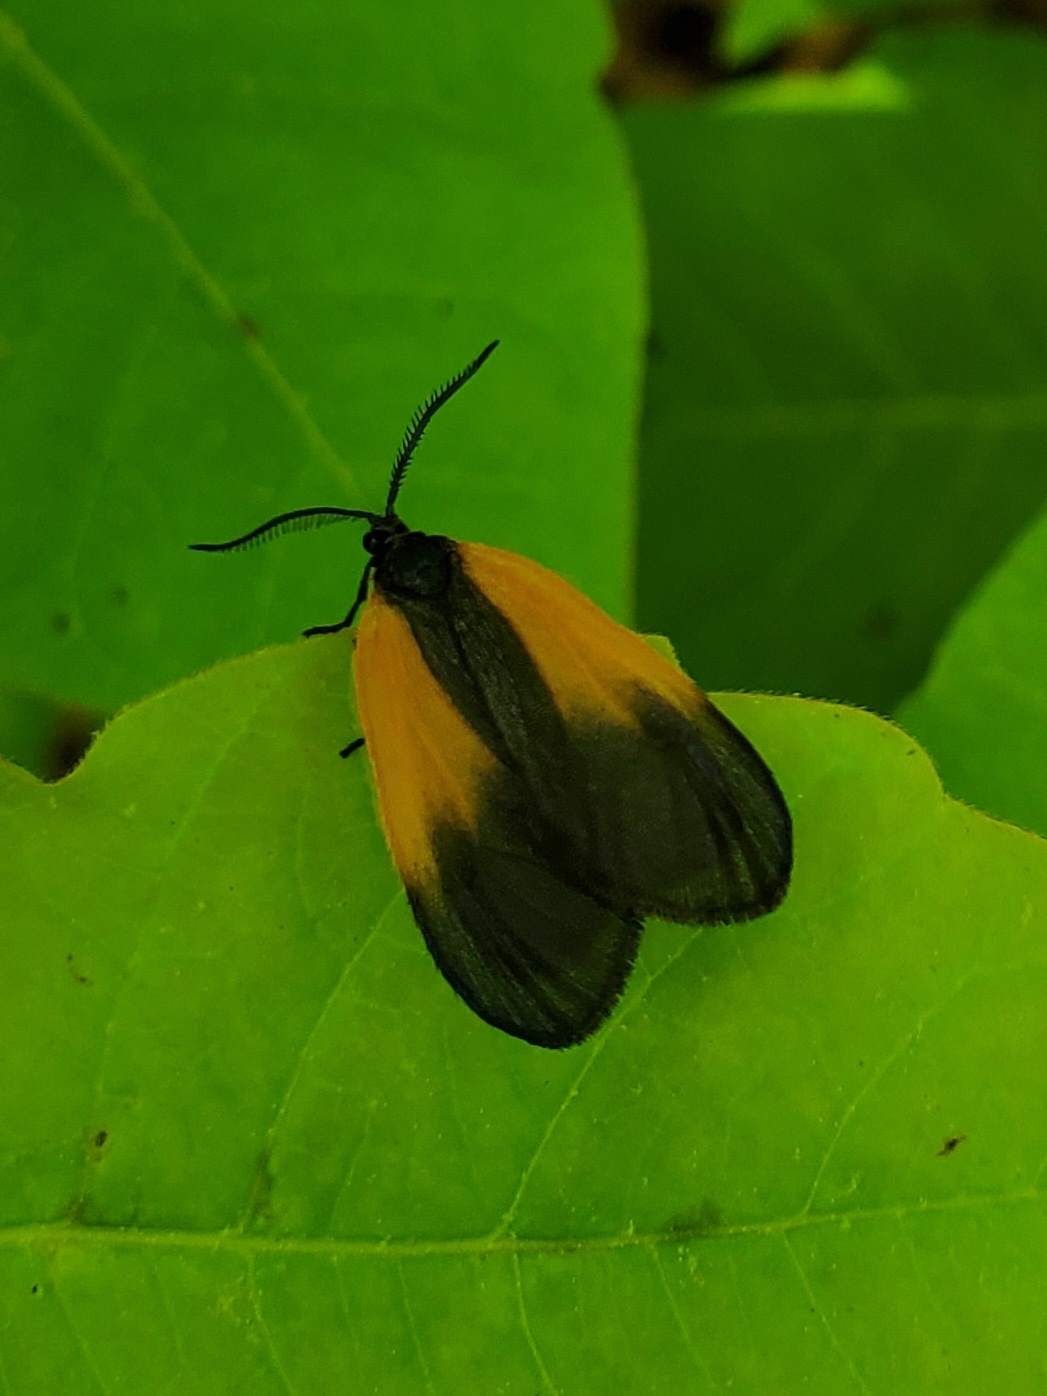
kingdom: Animalia
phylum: Arthropoda
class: Insecta
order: Lepidoptera
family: Zygaenidae
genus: Malthaca
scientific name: Malthaca dimidiata
